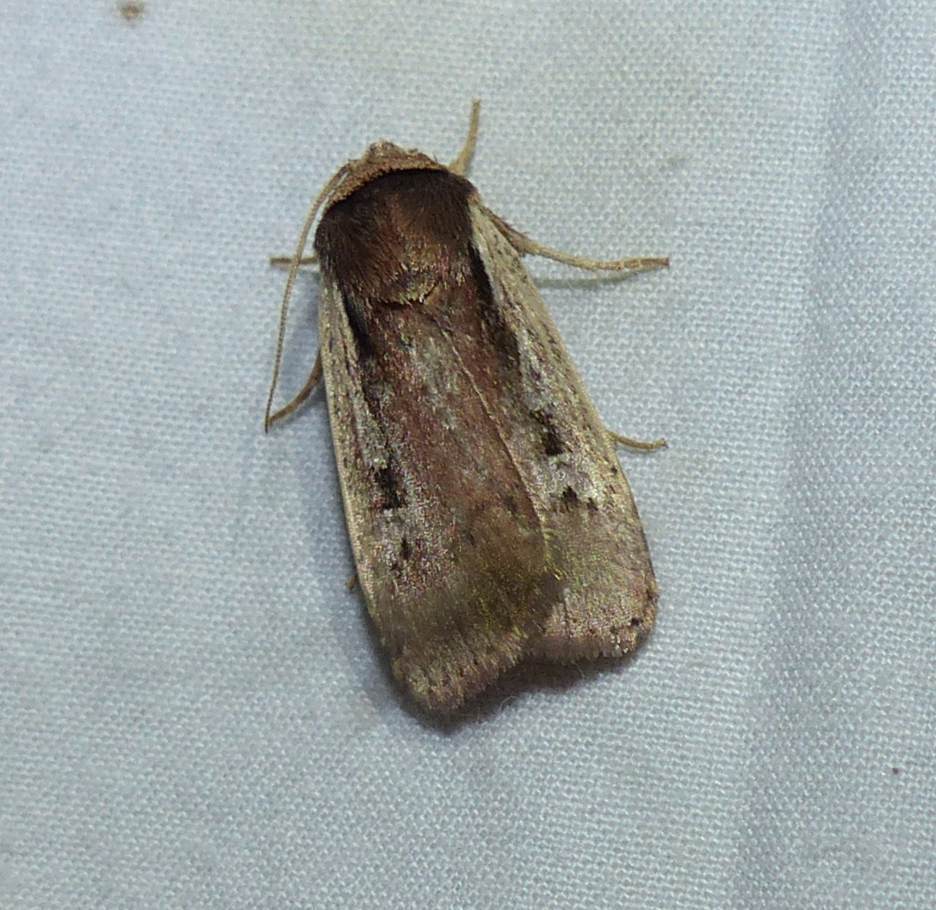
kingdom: Animalia
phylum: Arthropoda
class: Insecta
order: Lepidoptera
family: Noctuidae
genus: Ochropleura
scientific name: Ochropleura implecta
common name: Flame-shouldered dart
